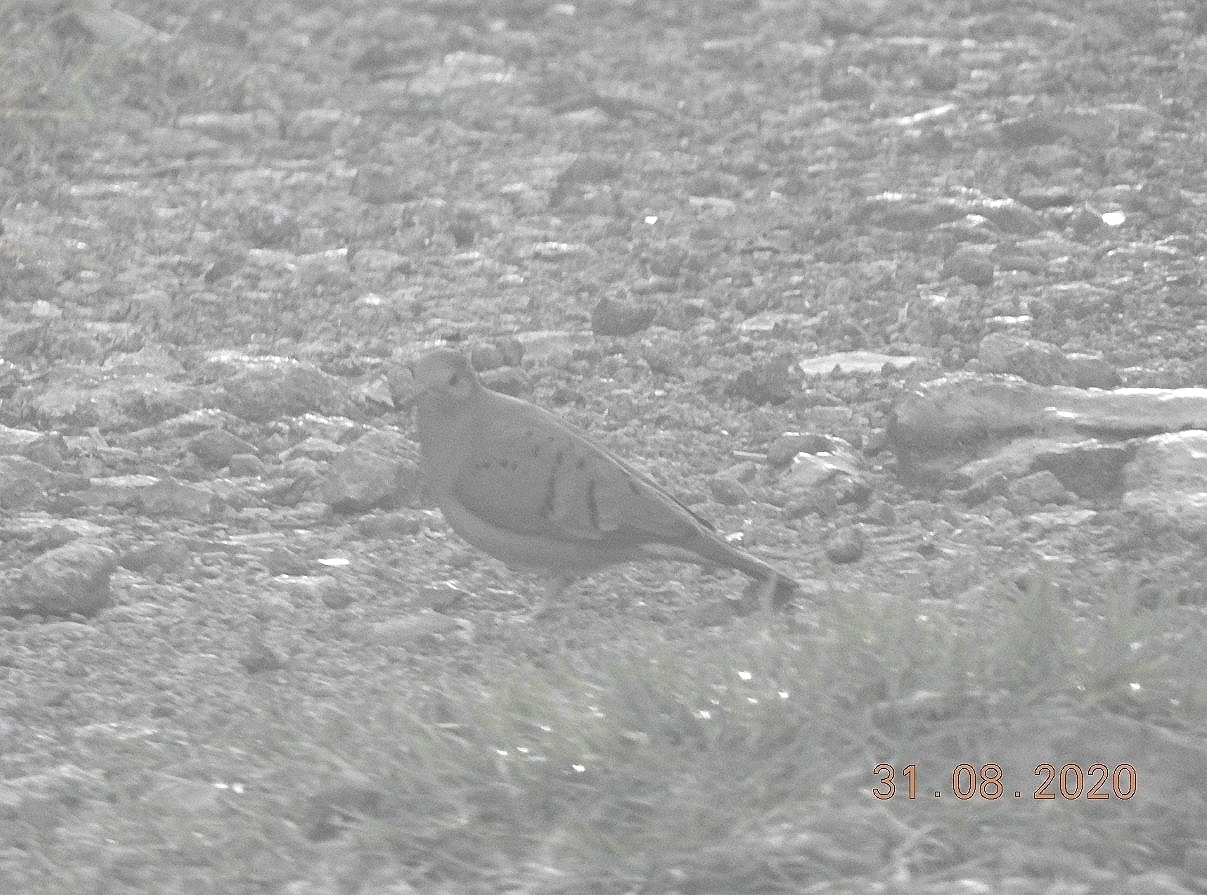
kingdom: Animalia
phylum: Chordata
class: Aves
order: Columbiformes
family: Columbidae
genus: Columbina
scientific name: Columbina talpacoti
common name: Ruddy ground dove
